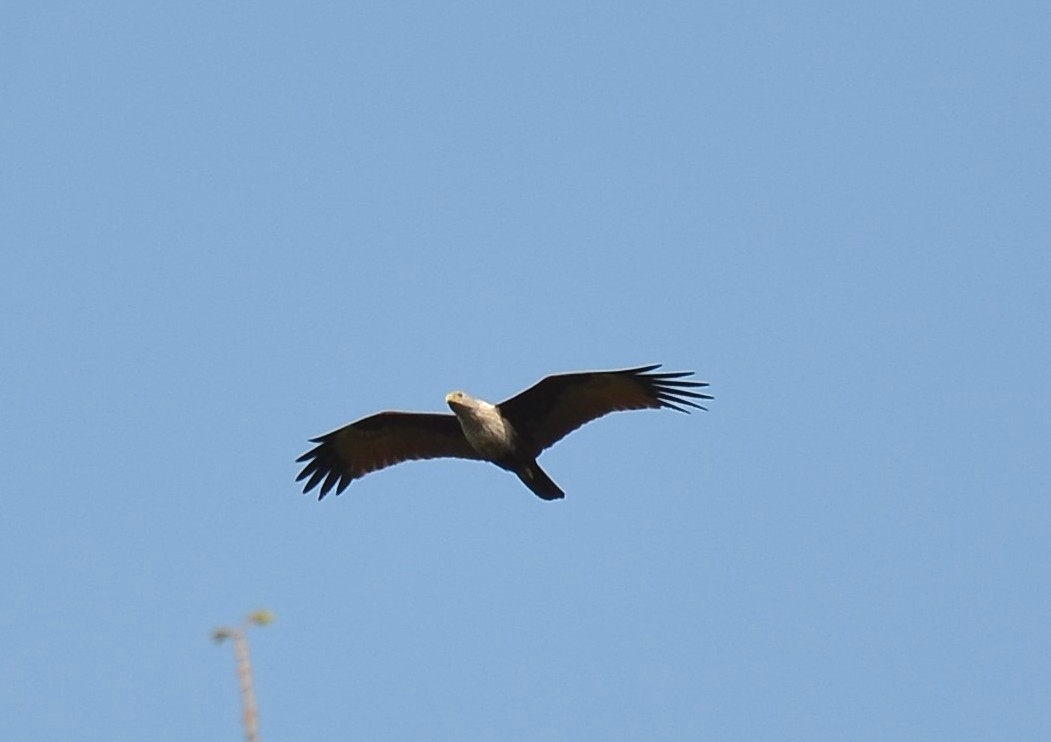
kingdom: Animalia
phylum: Chordata
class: Aves
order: Accipitriformes
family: Accipitridae
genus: Haliastur
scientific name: Haliastur indus
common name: Brahminy kite
